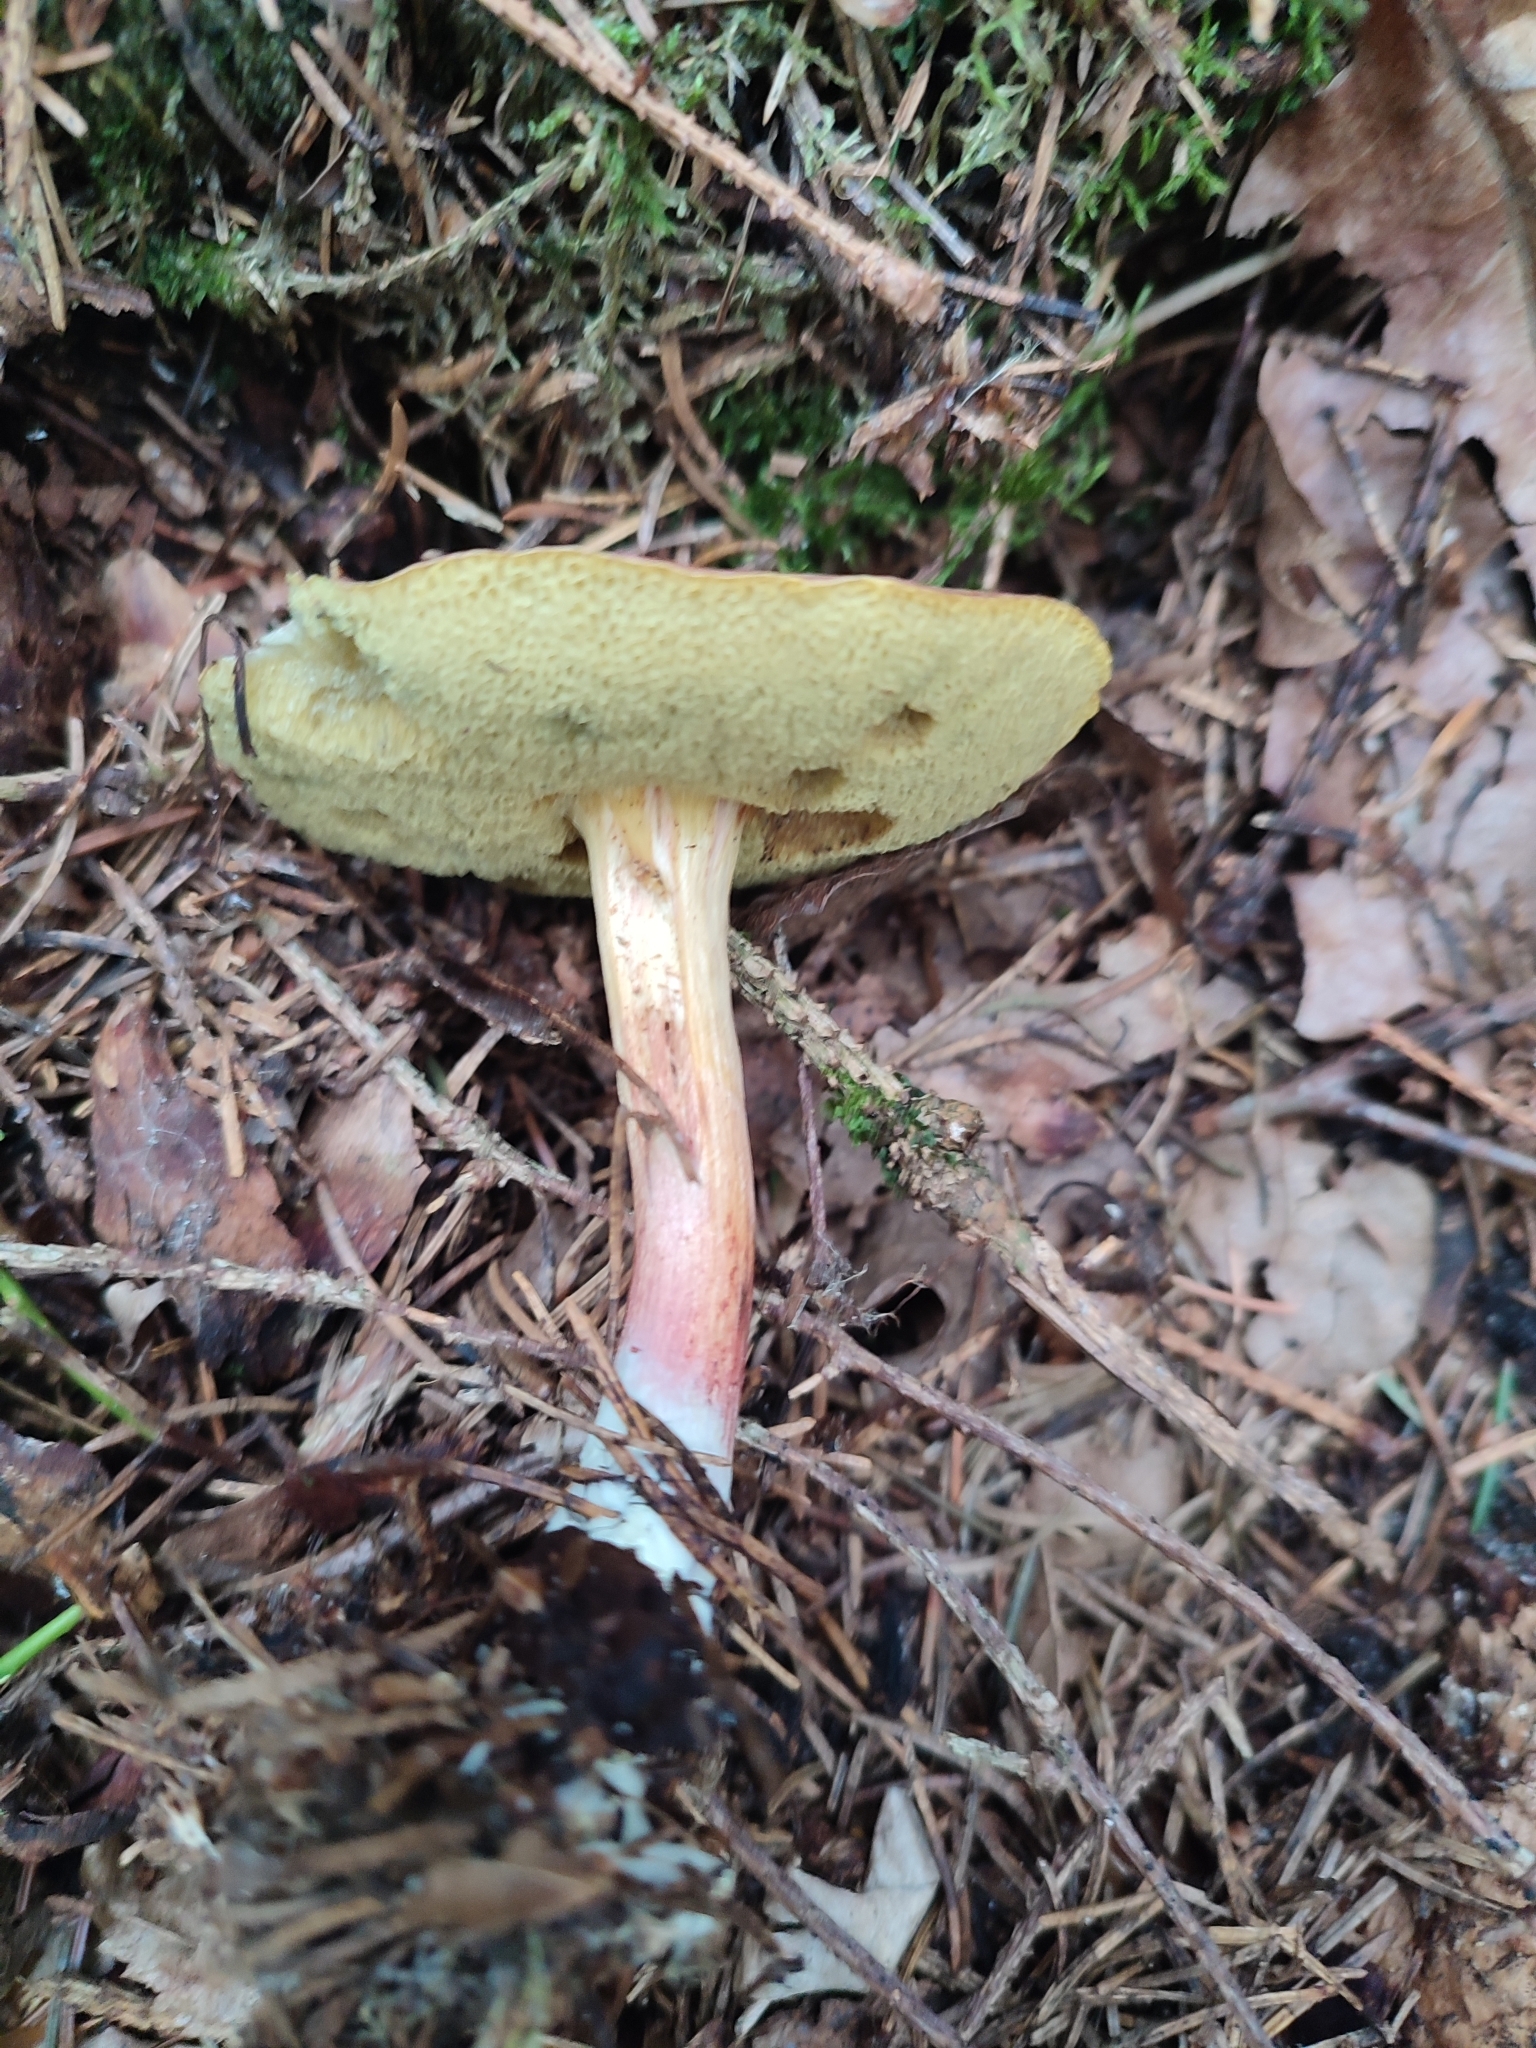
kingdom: Fungi
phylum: Basidiomycota
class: Agaricomycetes
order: Boletales
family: Boletaceae
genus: Xerocomellus
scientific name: Xerocomellus chrysenteron
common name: Red-cracking bolete
